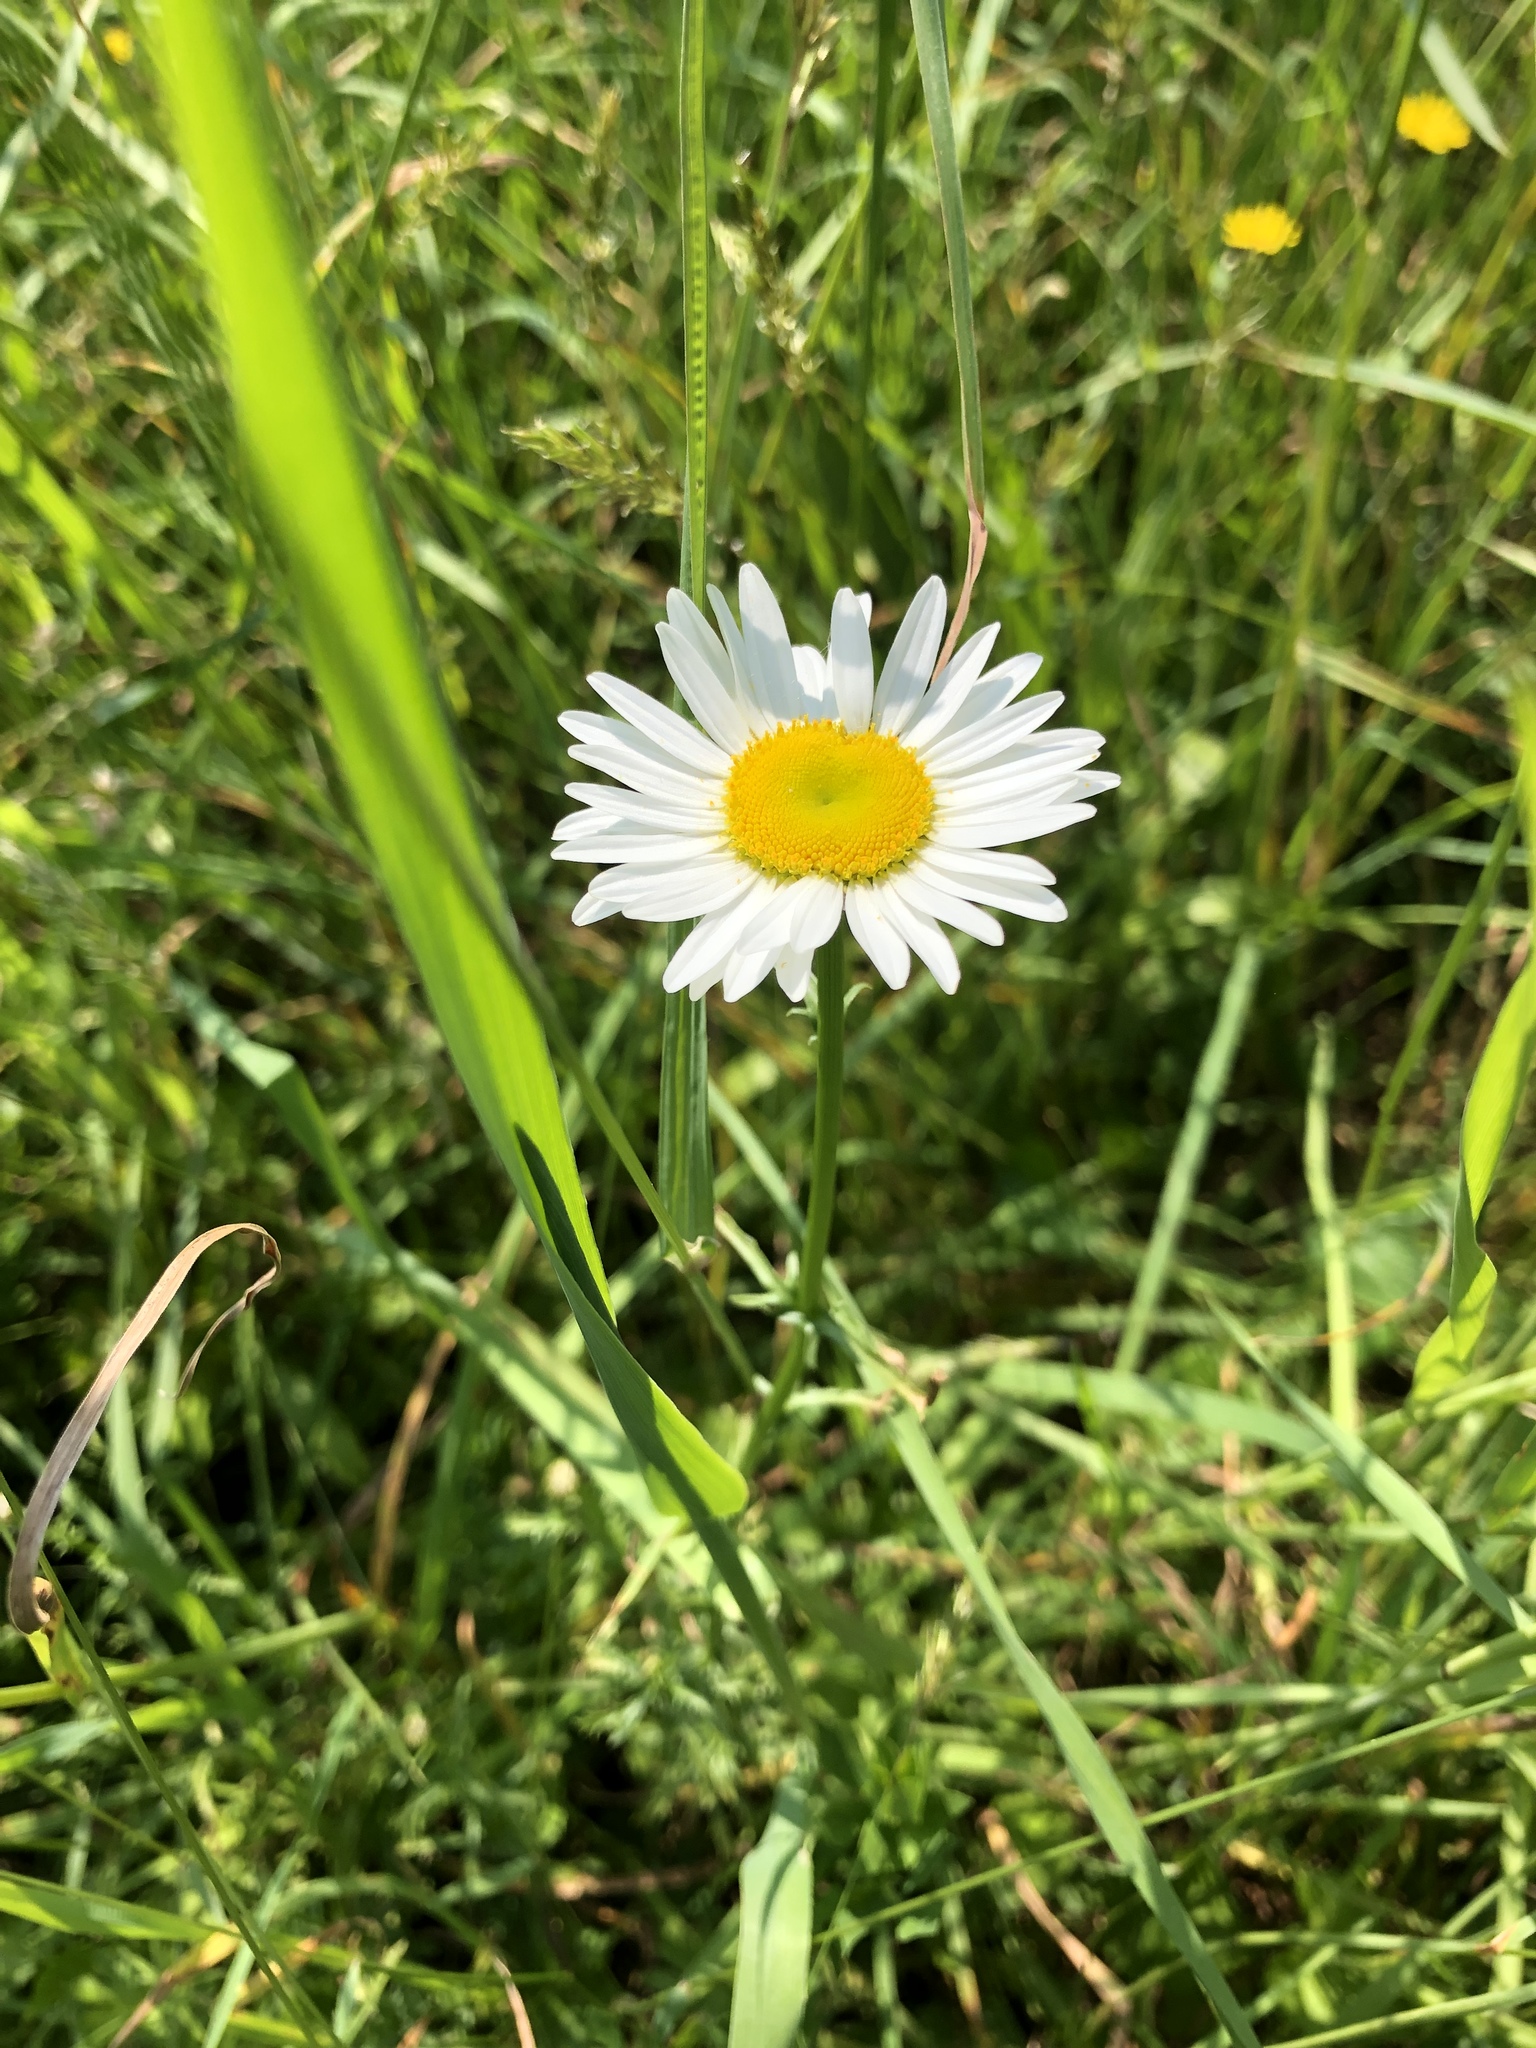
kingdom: Plantae
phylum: Tracheophyta
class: Magnoliopsida
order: Asterales
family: Asteraceae
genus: Leucanthemum
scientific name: Leucanthemum vulgare
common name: Oxeye daisy
